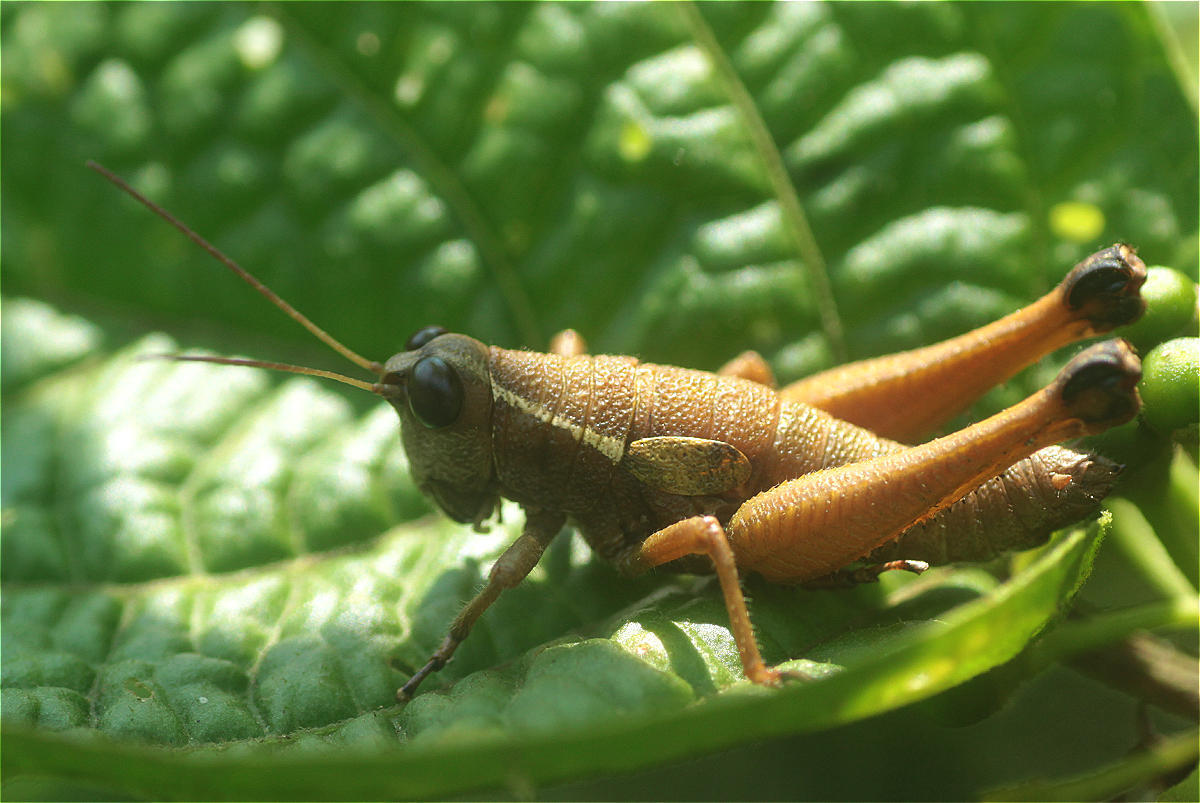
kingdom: Animalia
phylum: Arthropoda
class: Insecta
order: Orthoptera
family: Acrididae
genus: Eulampiacris
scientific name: Eulampiacris leucoptera
